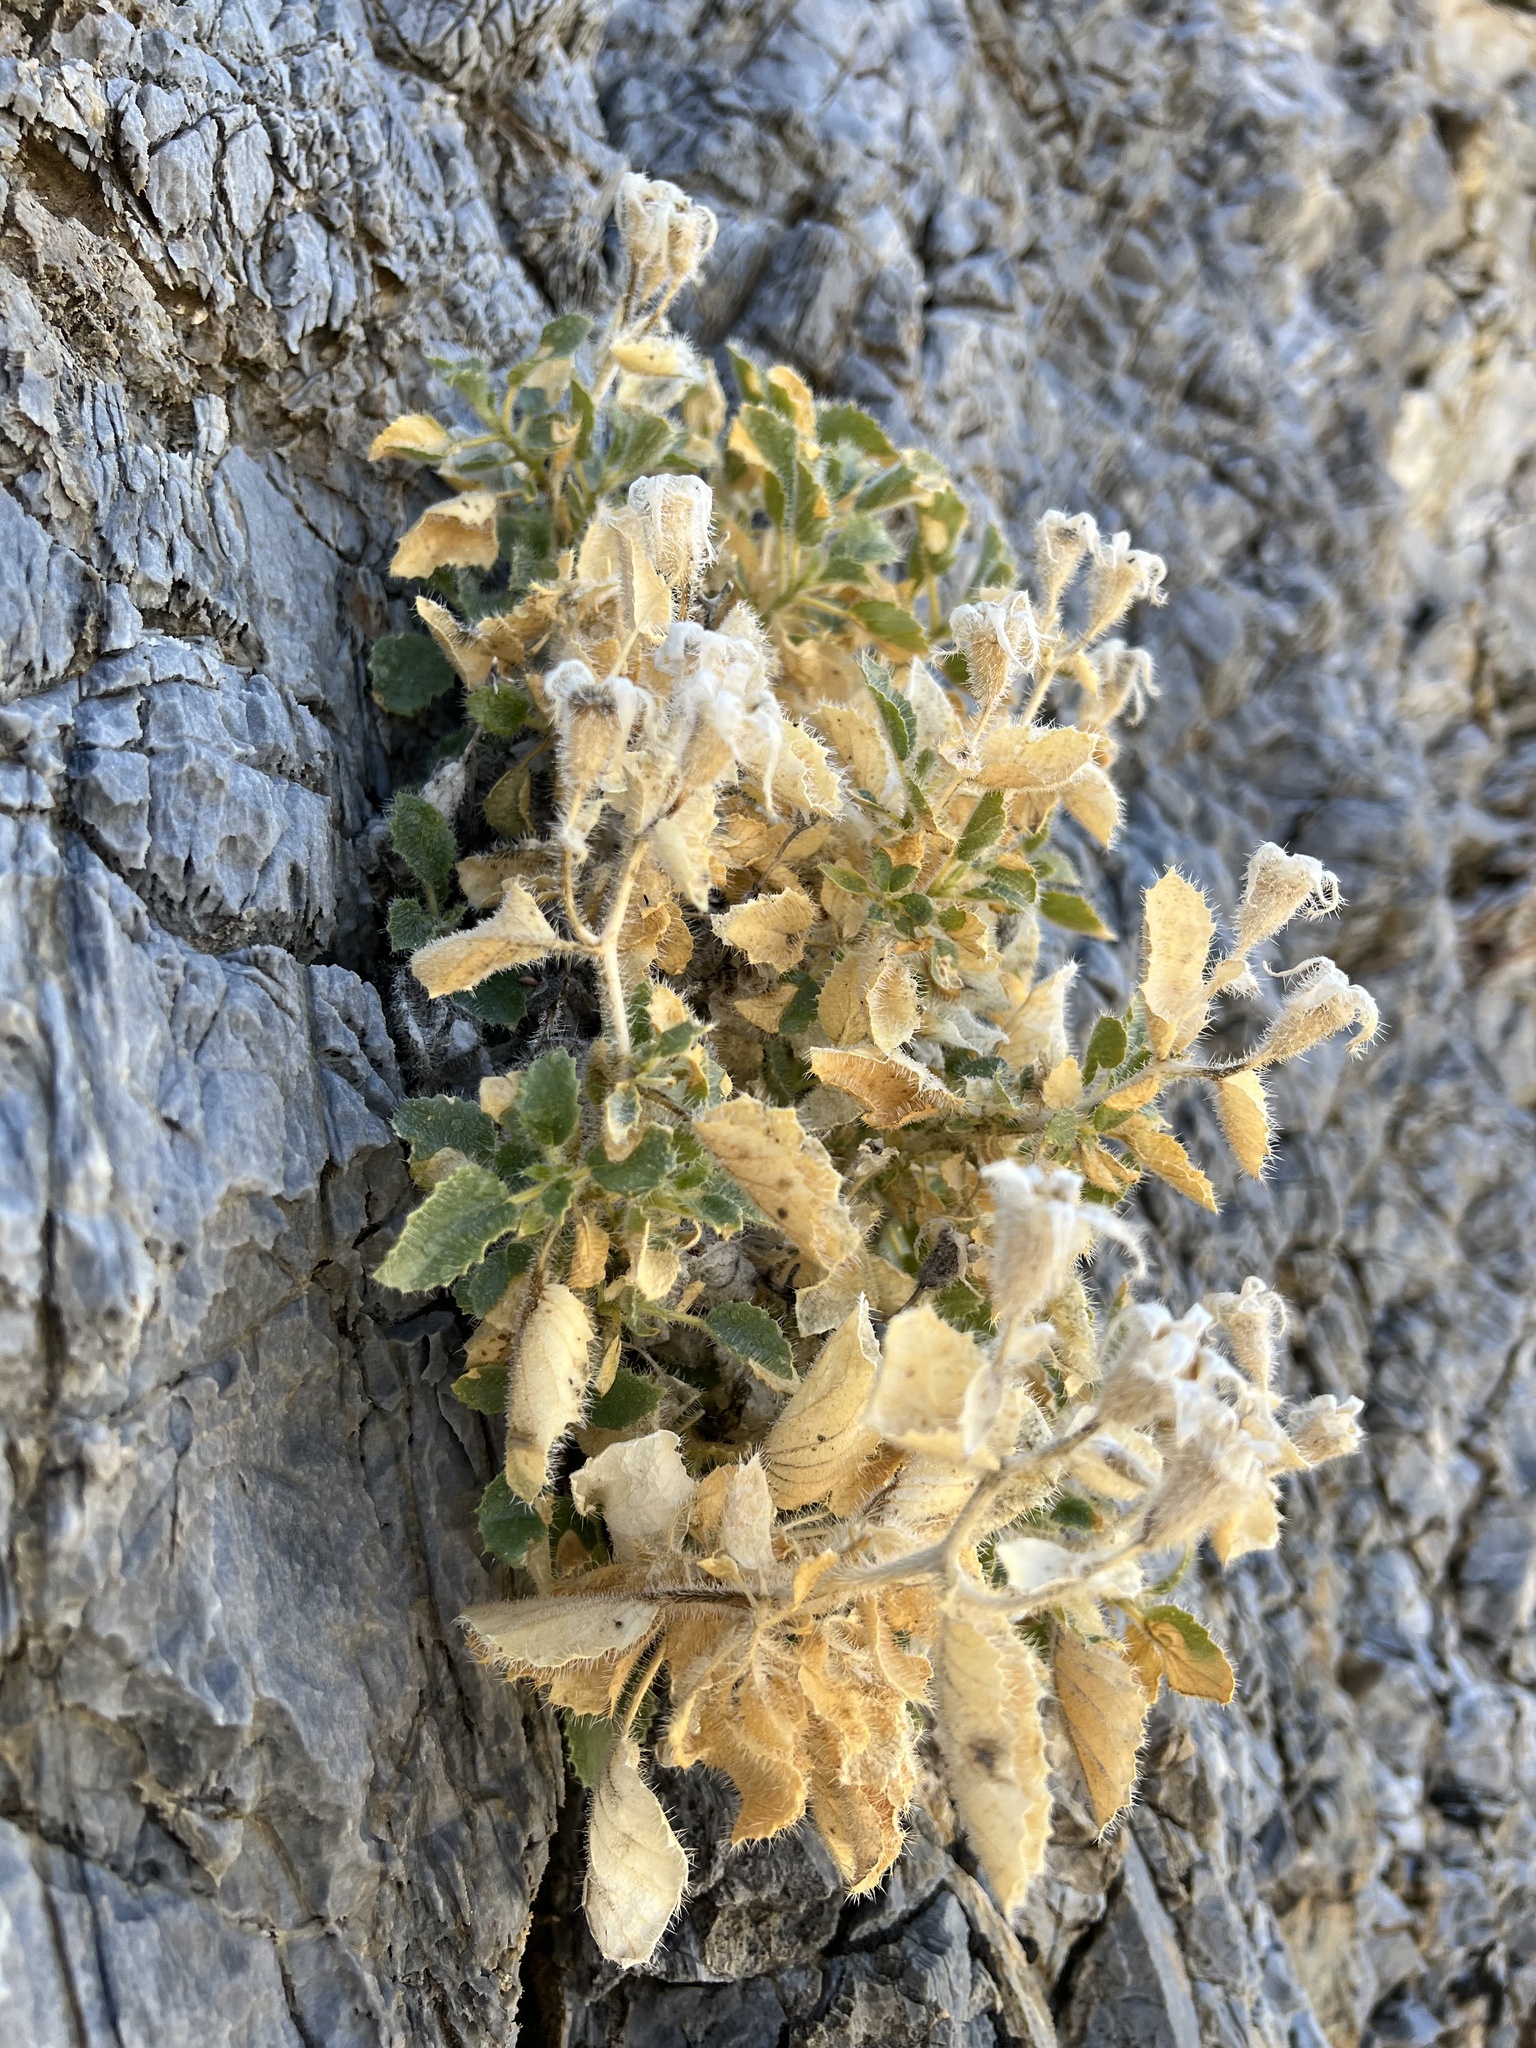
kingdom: Plantae
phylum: Tracheophyta
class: Magnoliopsida
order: Cornales
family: Loasaceae
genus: Eucnide
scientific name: Eucnide urens
